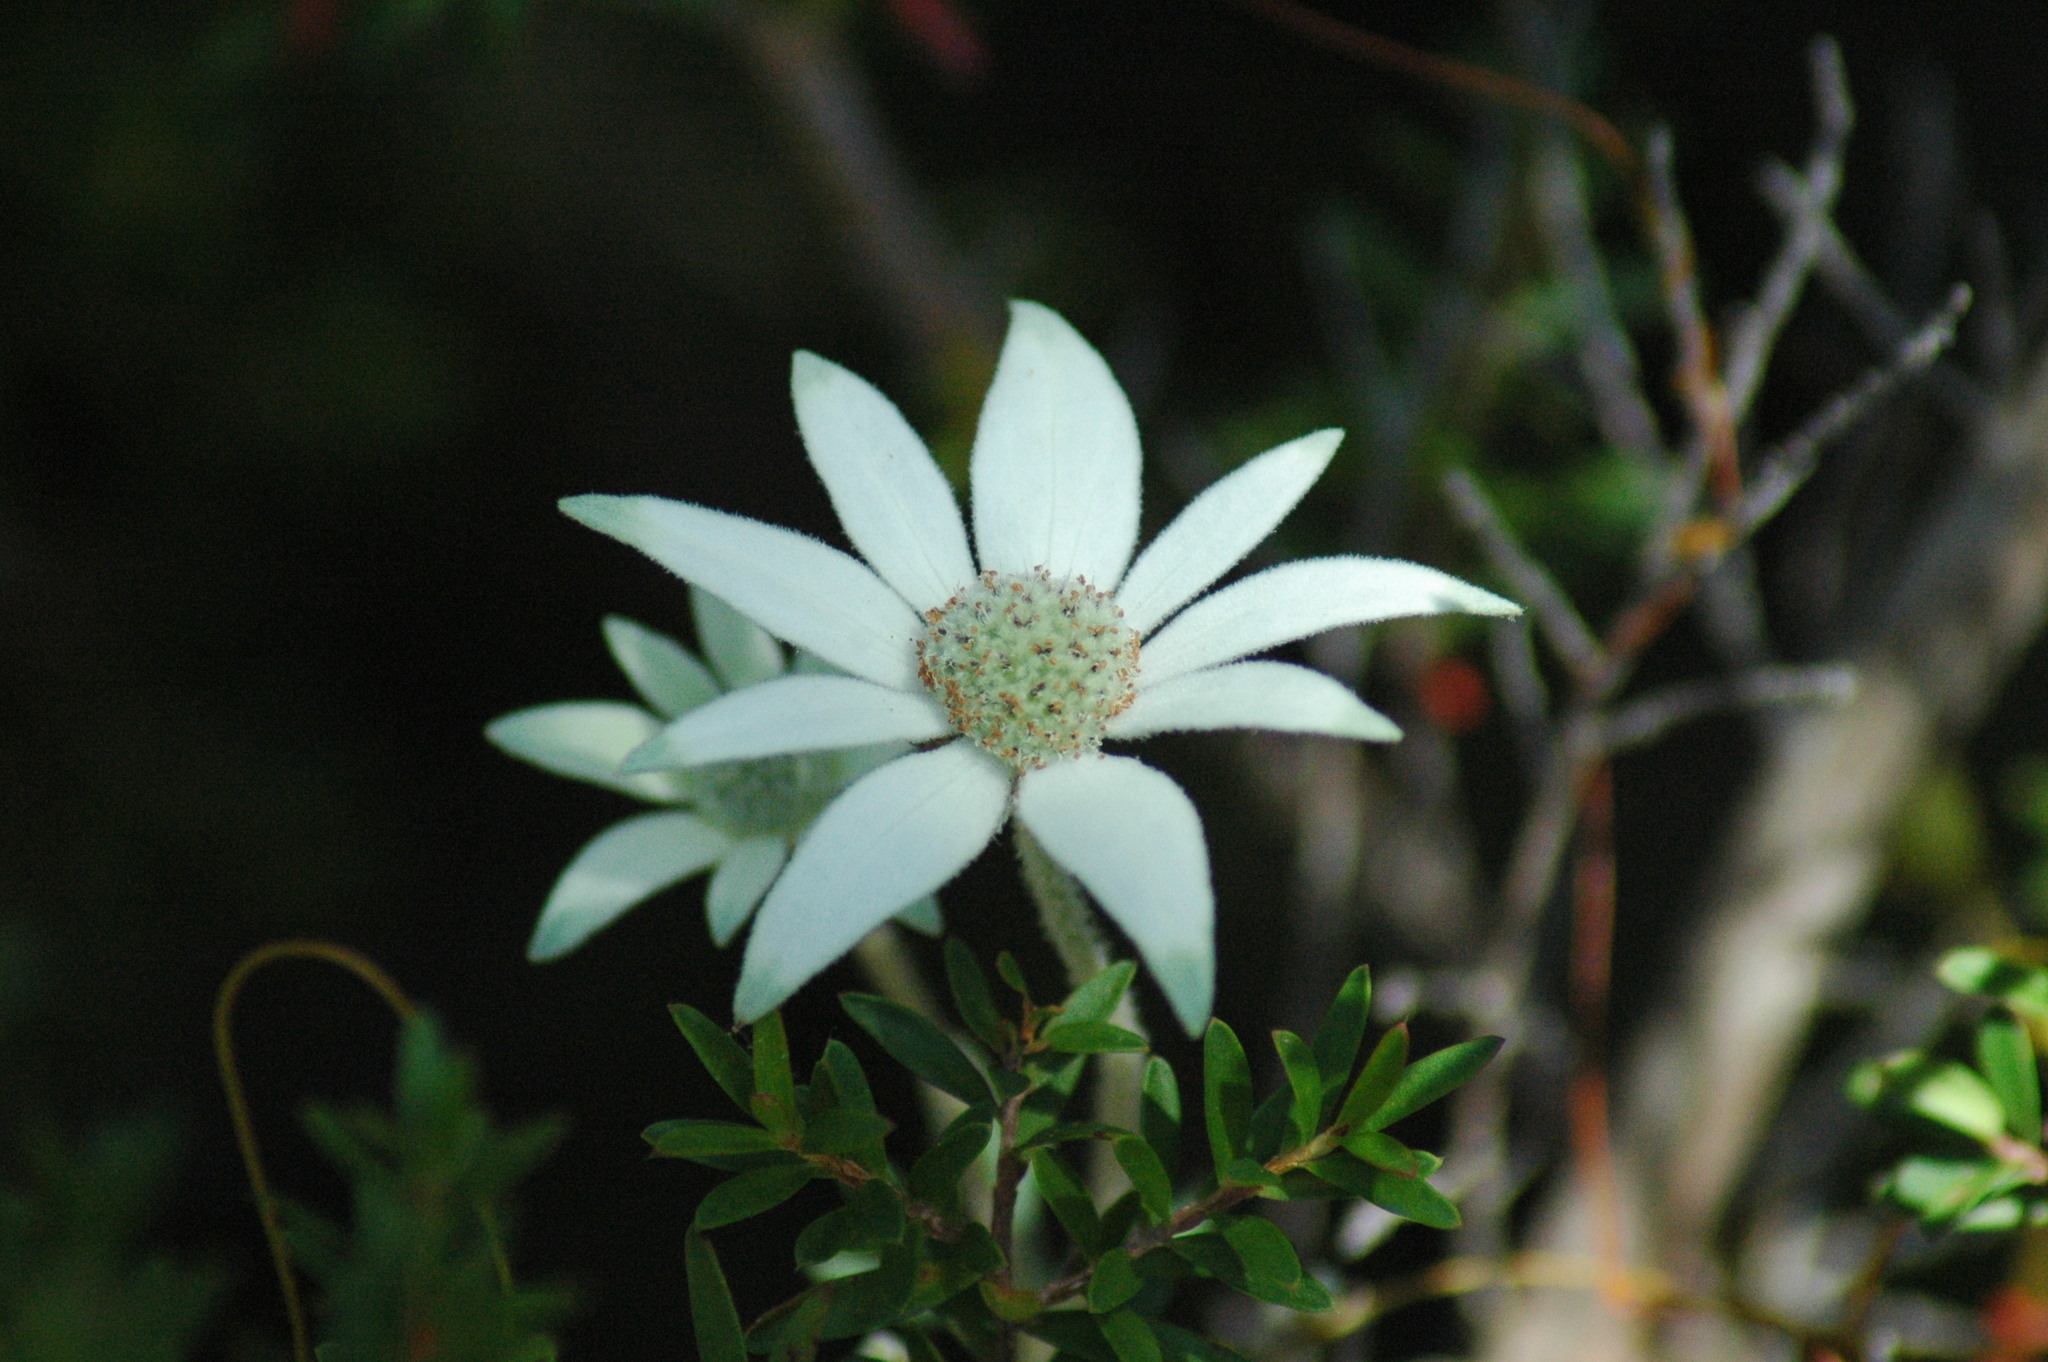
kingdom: Plantae
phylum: Tracheophyta
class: Magnoliopsida
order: Apiales
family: Apiaceae
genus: Actinotus
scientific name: Actinotus helianthi
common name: Flannel-flower
